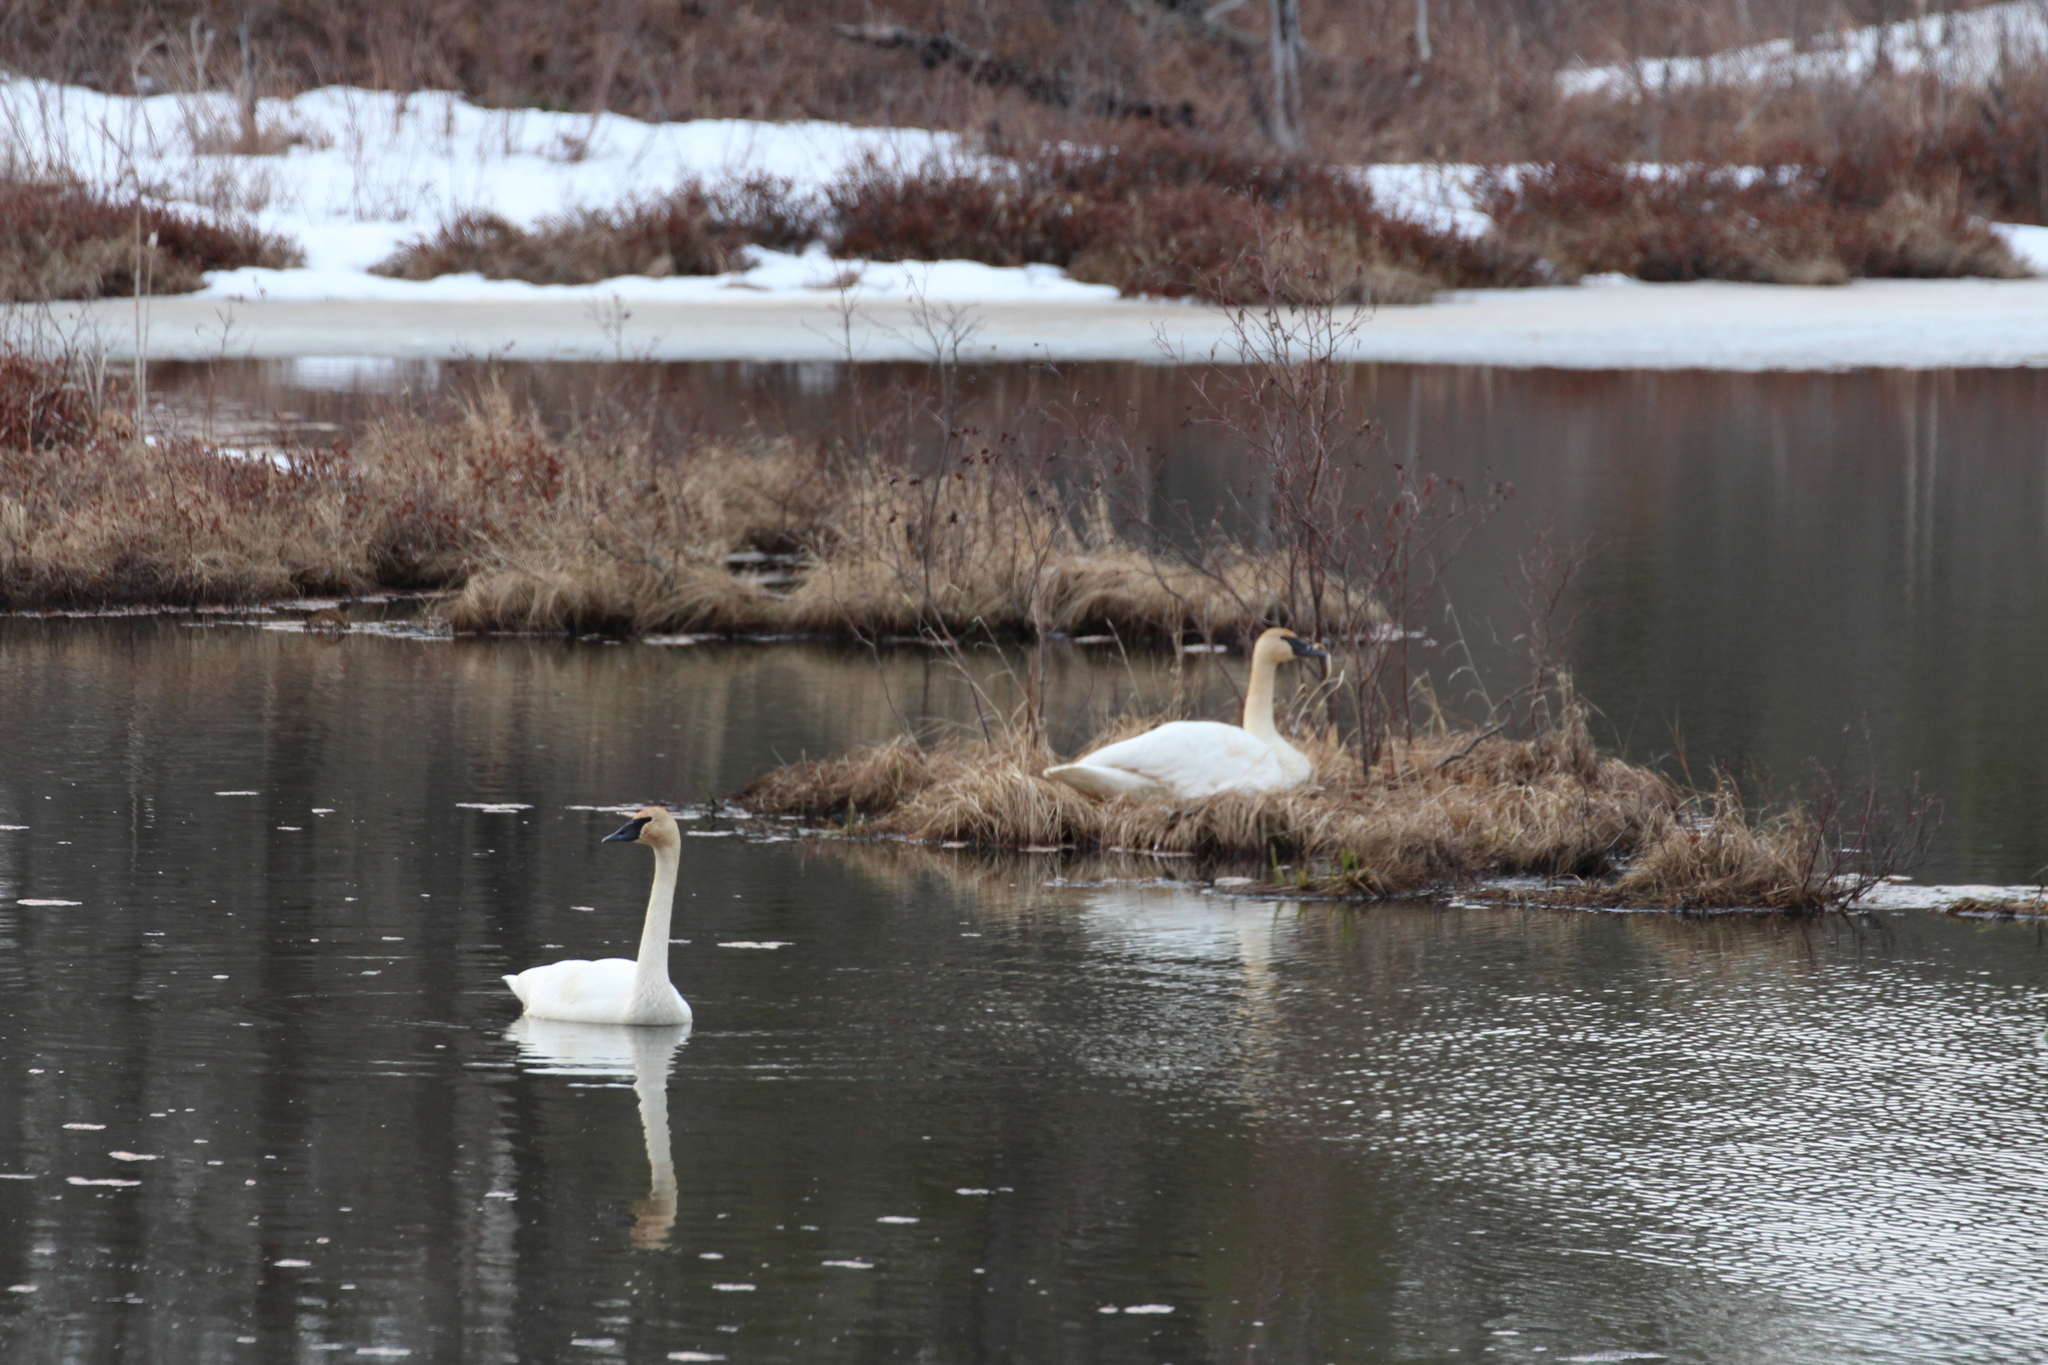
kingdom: Animalia
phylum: Chordata
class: Aves
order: Anseriformes
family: Anatidae
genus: Cygnus
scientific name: Cygnus buccinator
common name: Trumpeter swan
